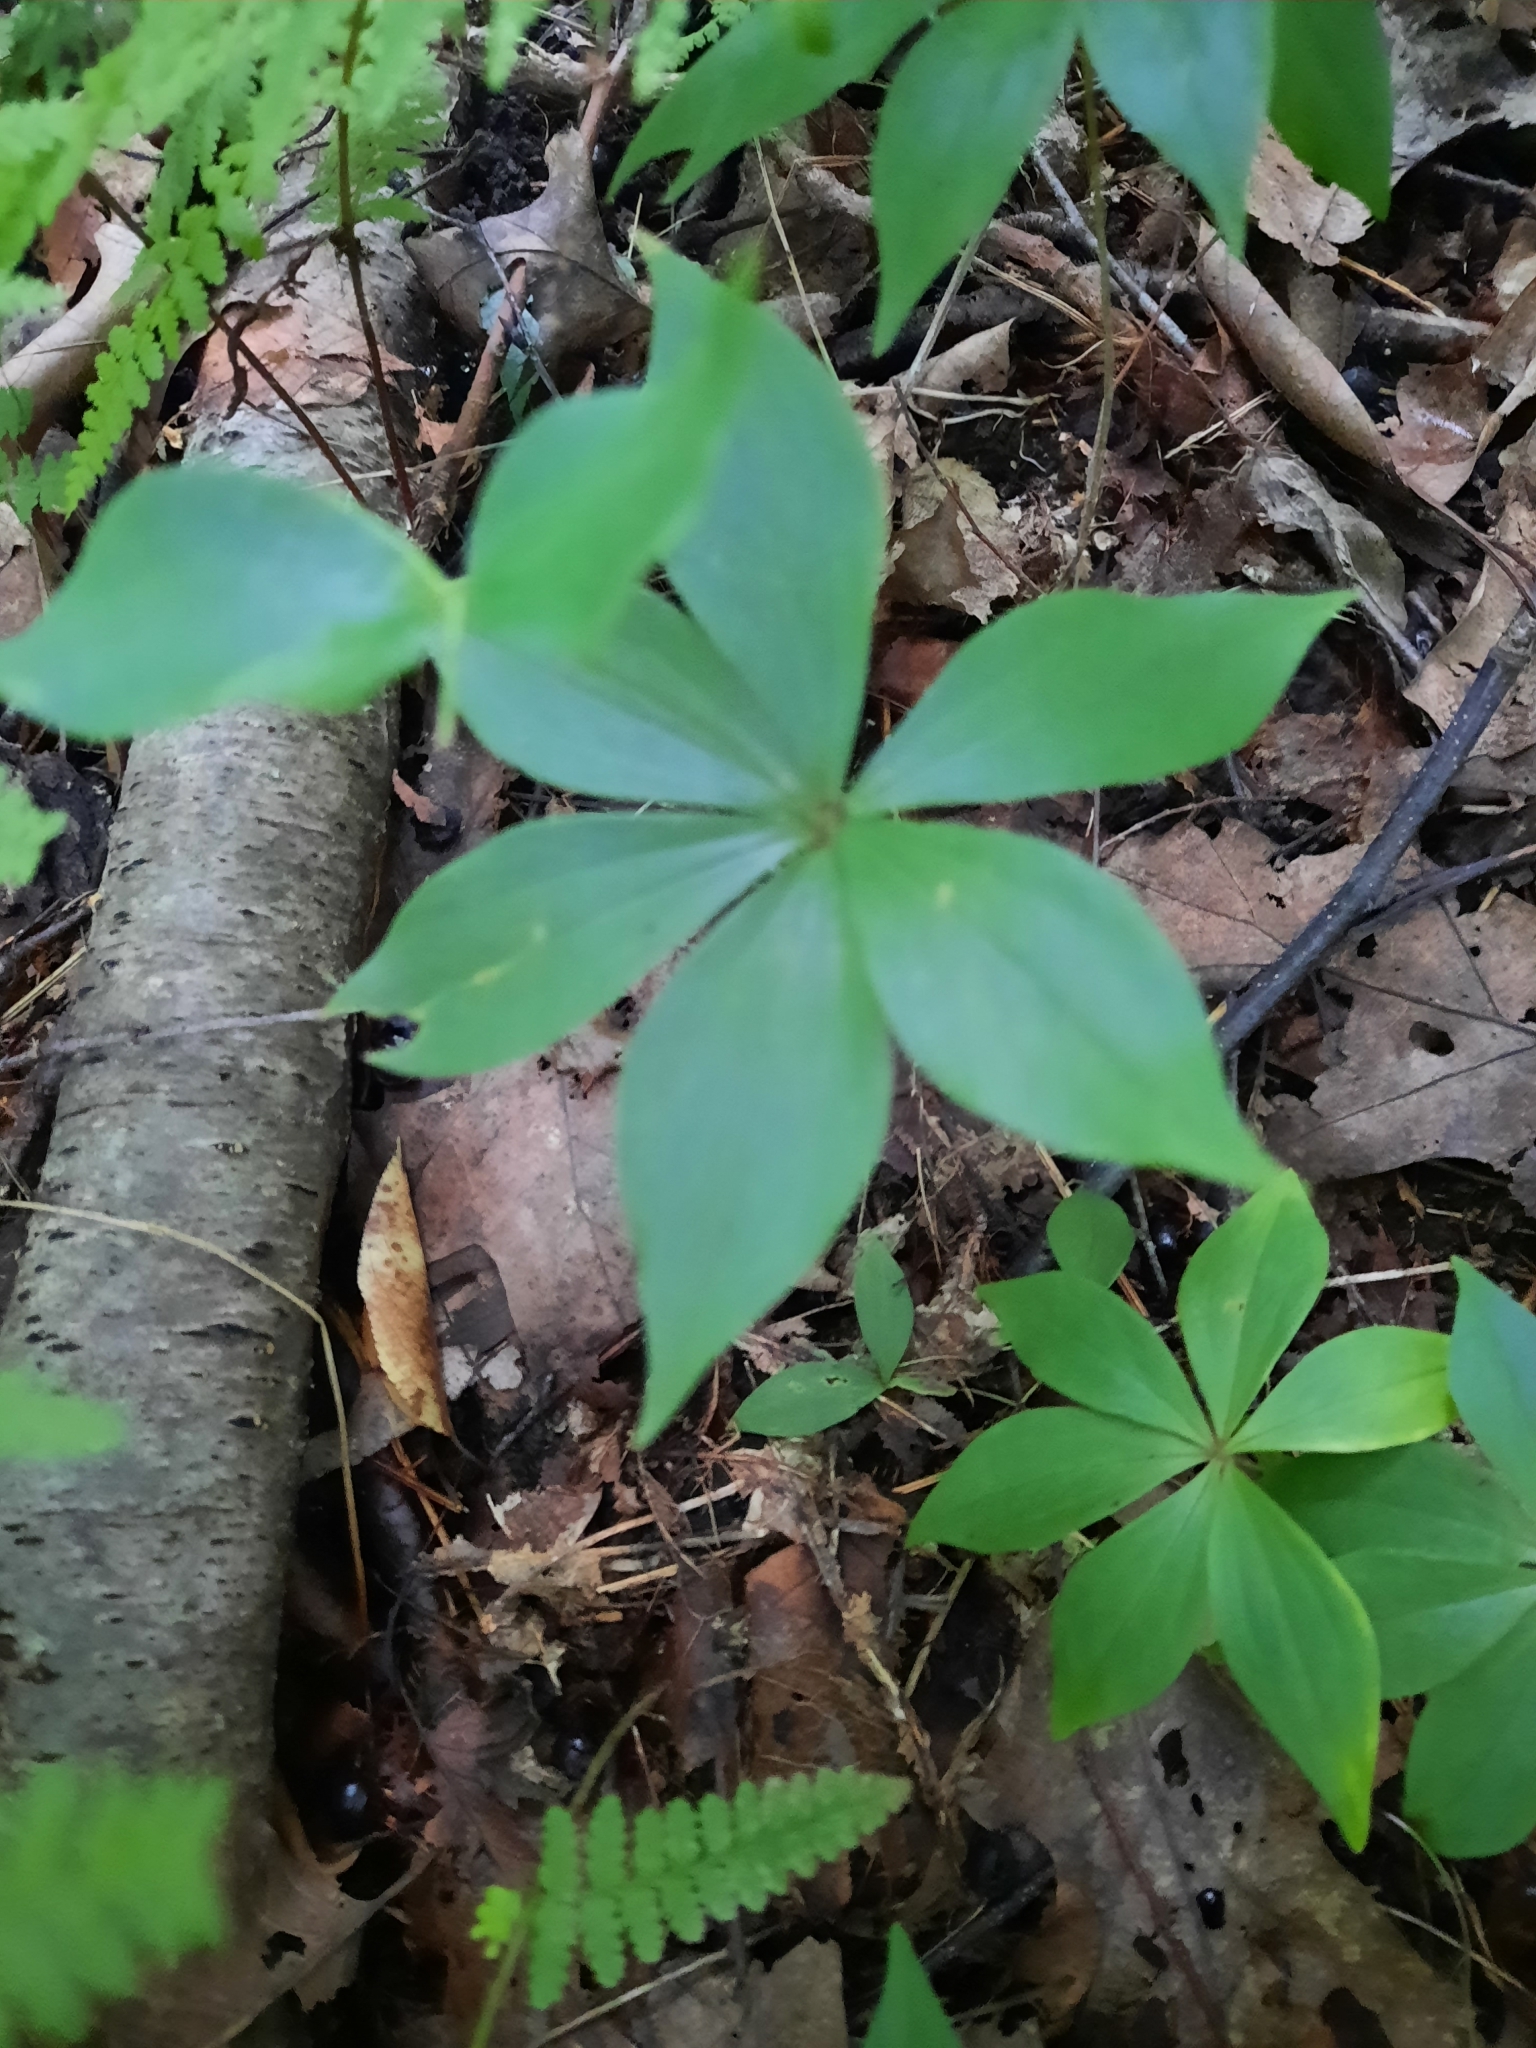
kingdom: Plantae
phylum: Tracheophyta
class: Liliopsida
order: Liliales
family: Liliaceae
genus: Medeola
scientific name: Medeola virginiana
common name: Indian cucumber-root
